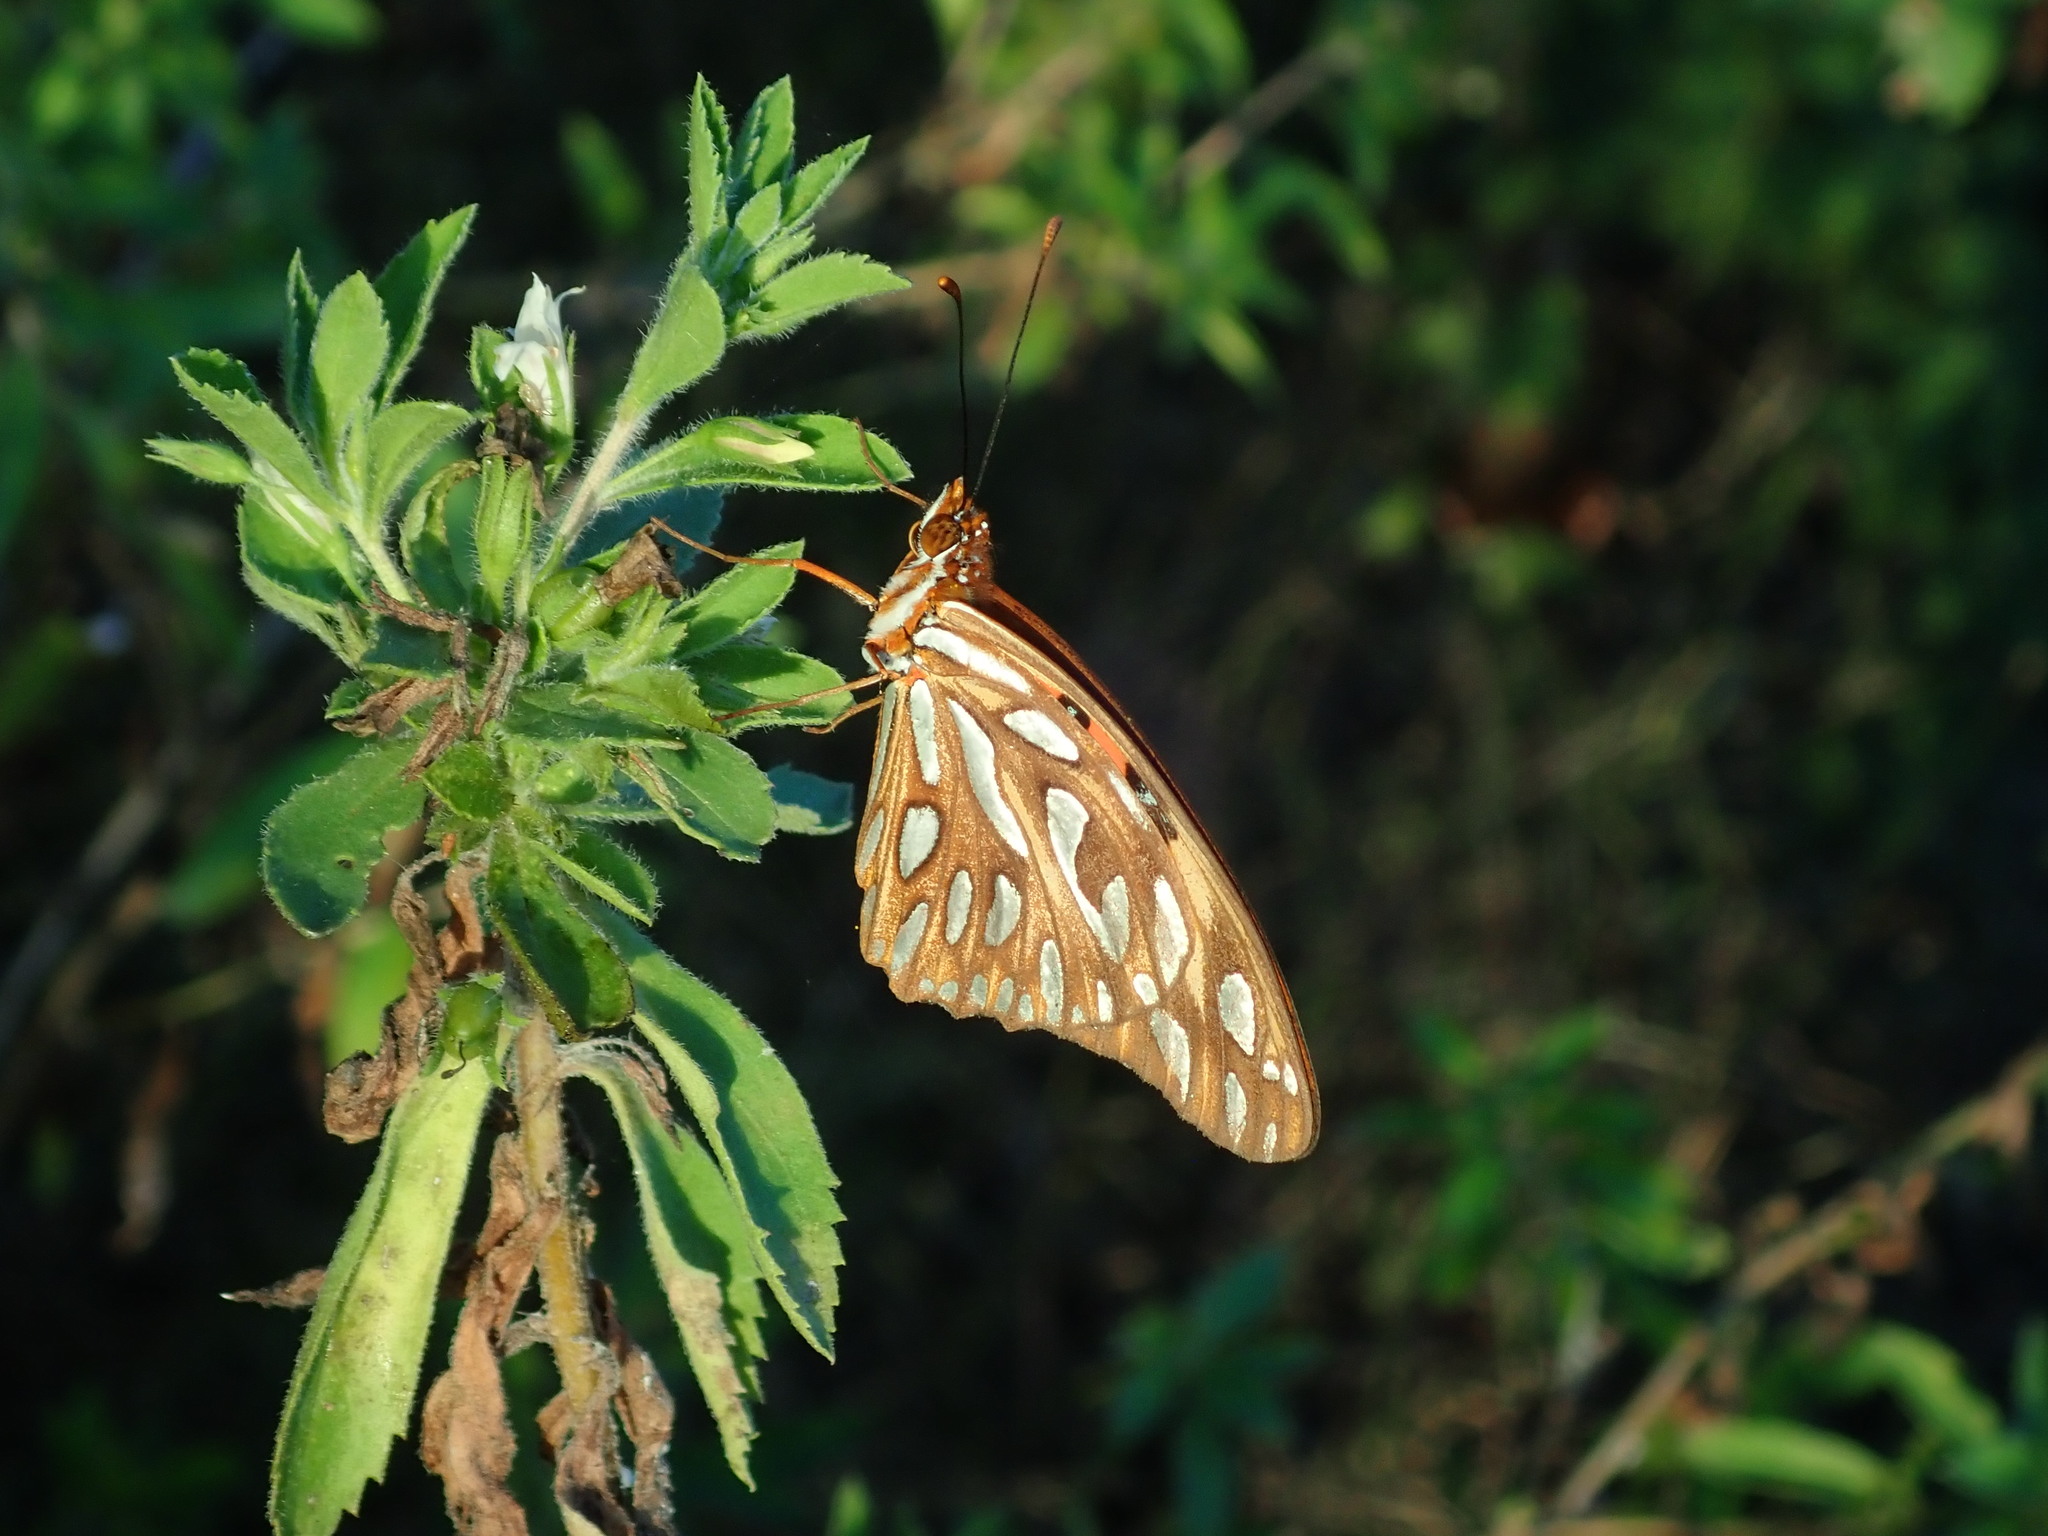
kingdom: Animalia
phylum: Arthropoda
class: Insecta
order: Lepidoptera
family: Nymphalidae
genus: Dione
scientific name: Dione vanillae
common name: Gulf fritillary
